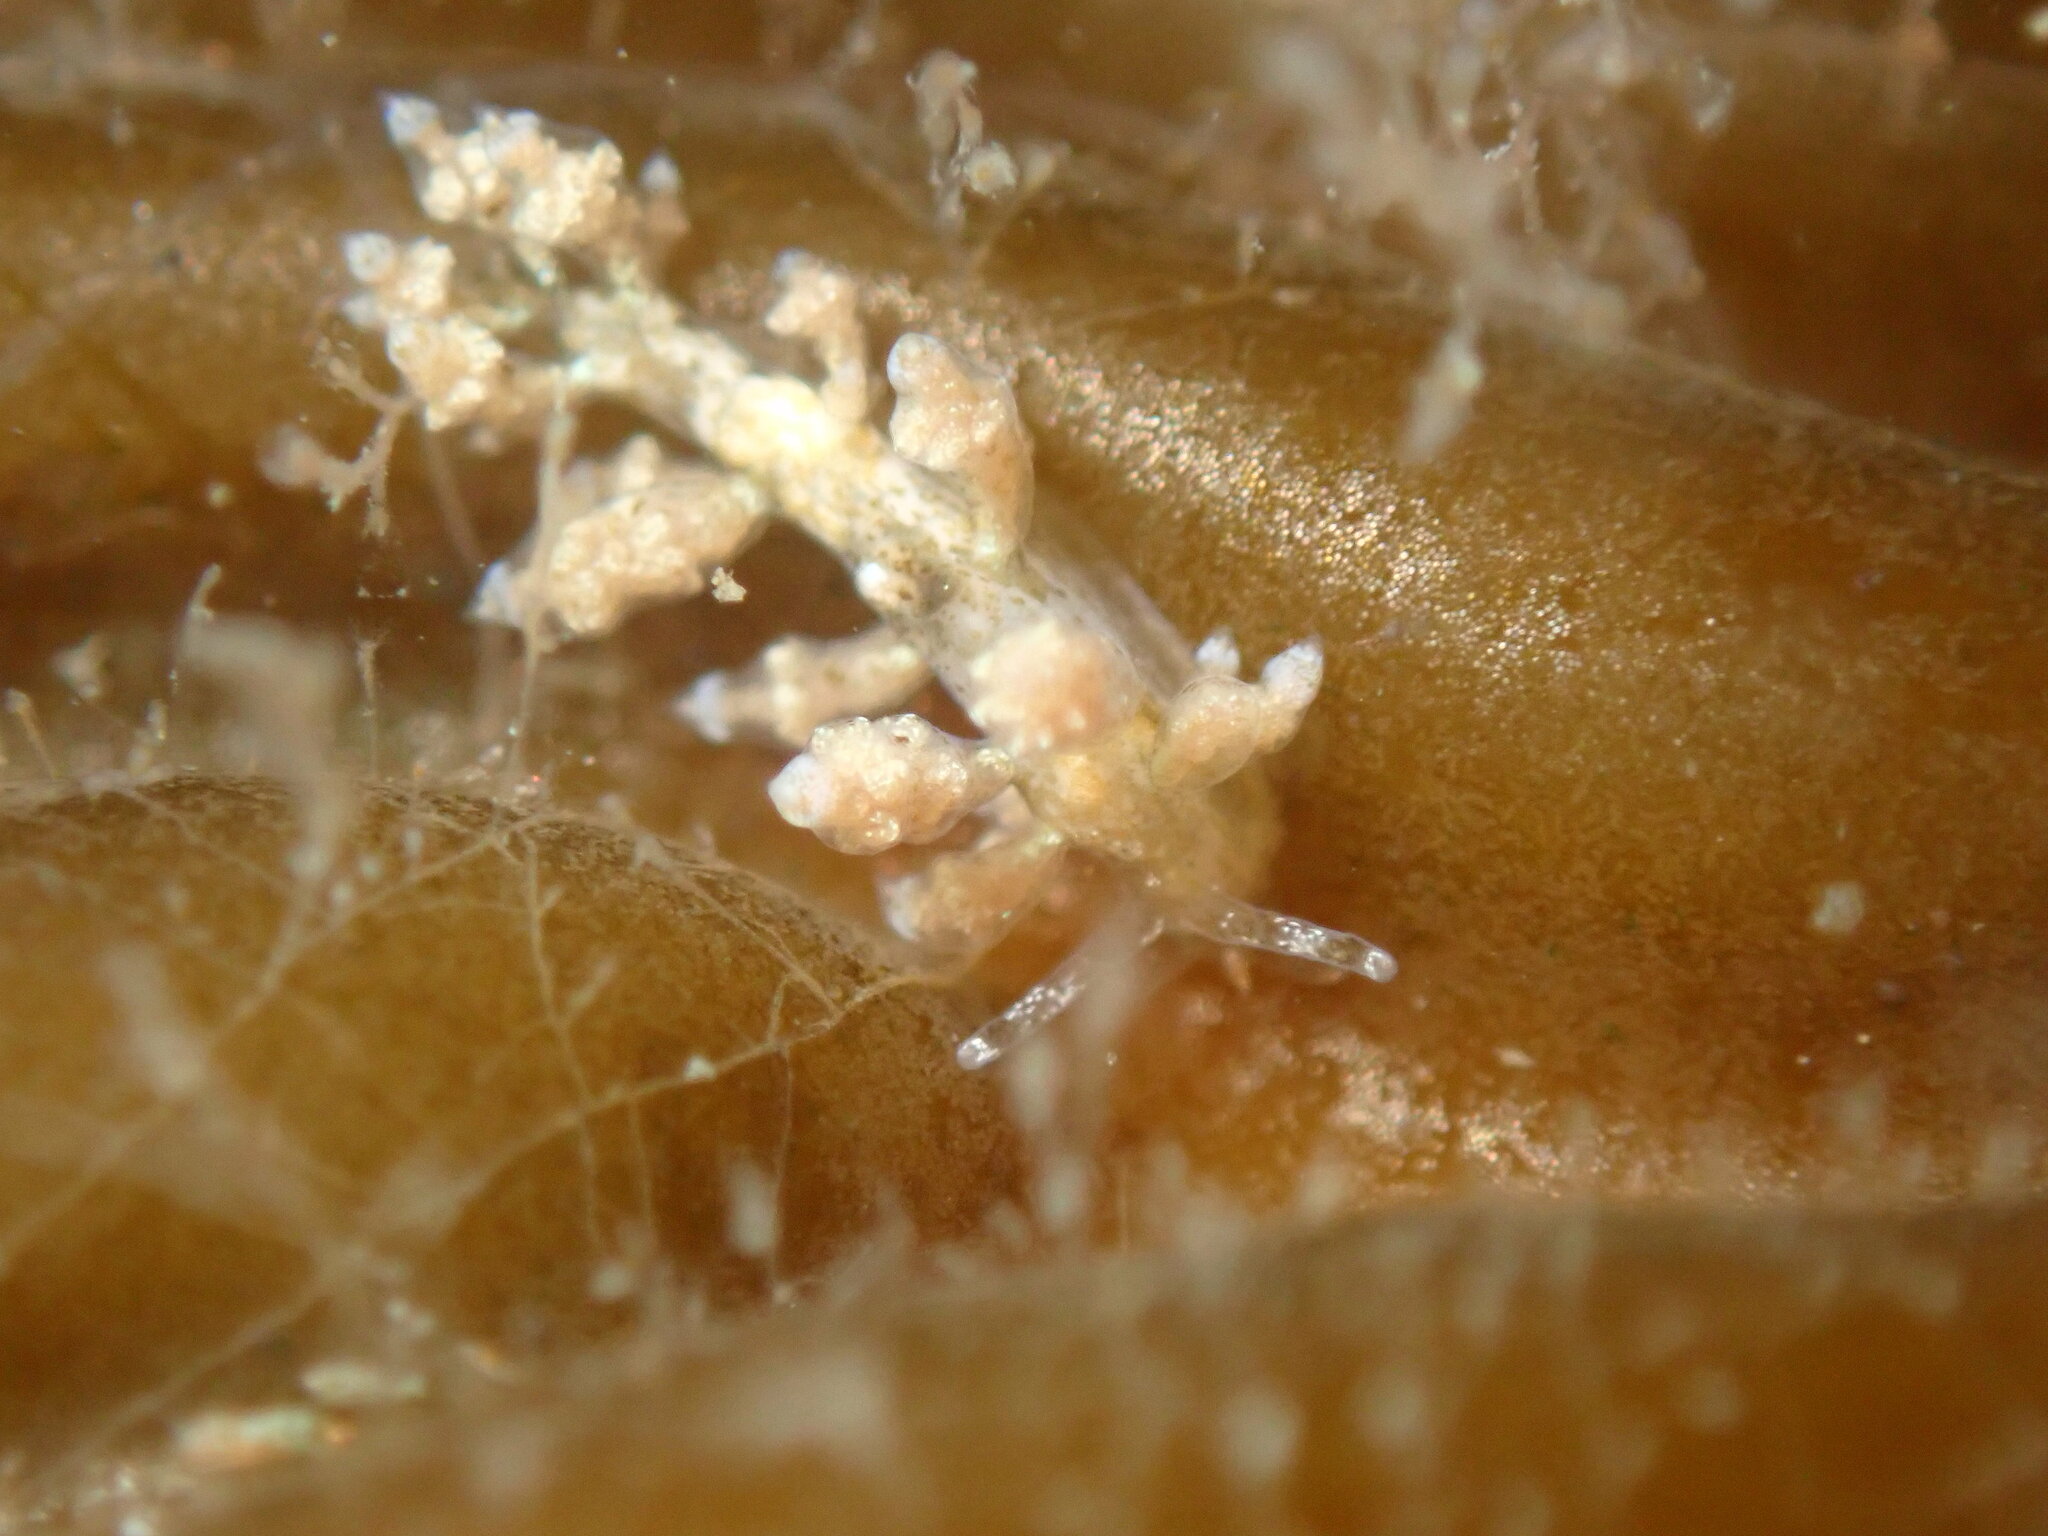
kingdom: Animalia
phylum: Mollusca
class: Gastropoda
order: Nudibranchia
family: Eubranchidae
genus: Eubranchus
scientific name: Eubranchus rustyus
